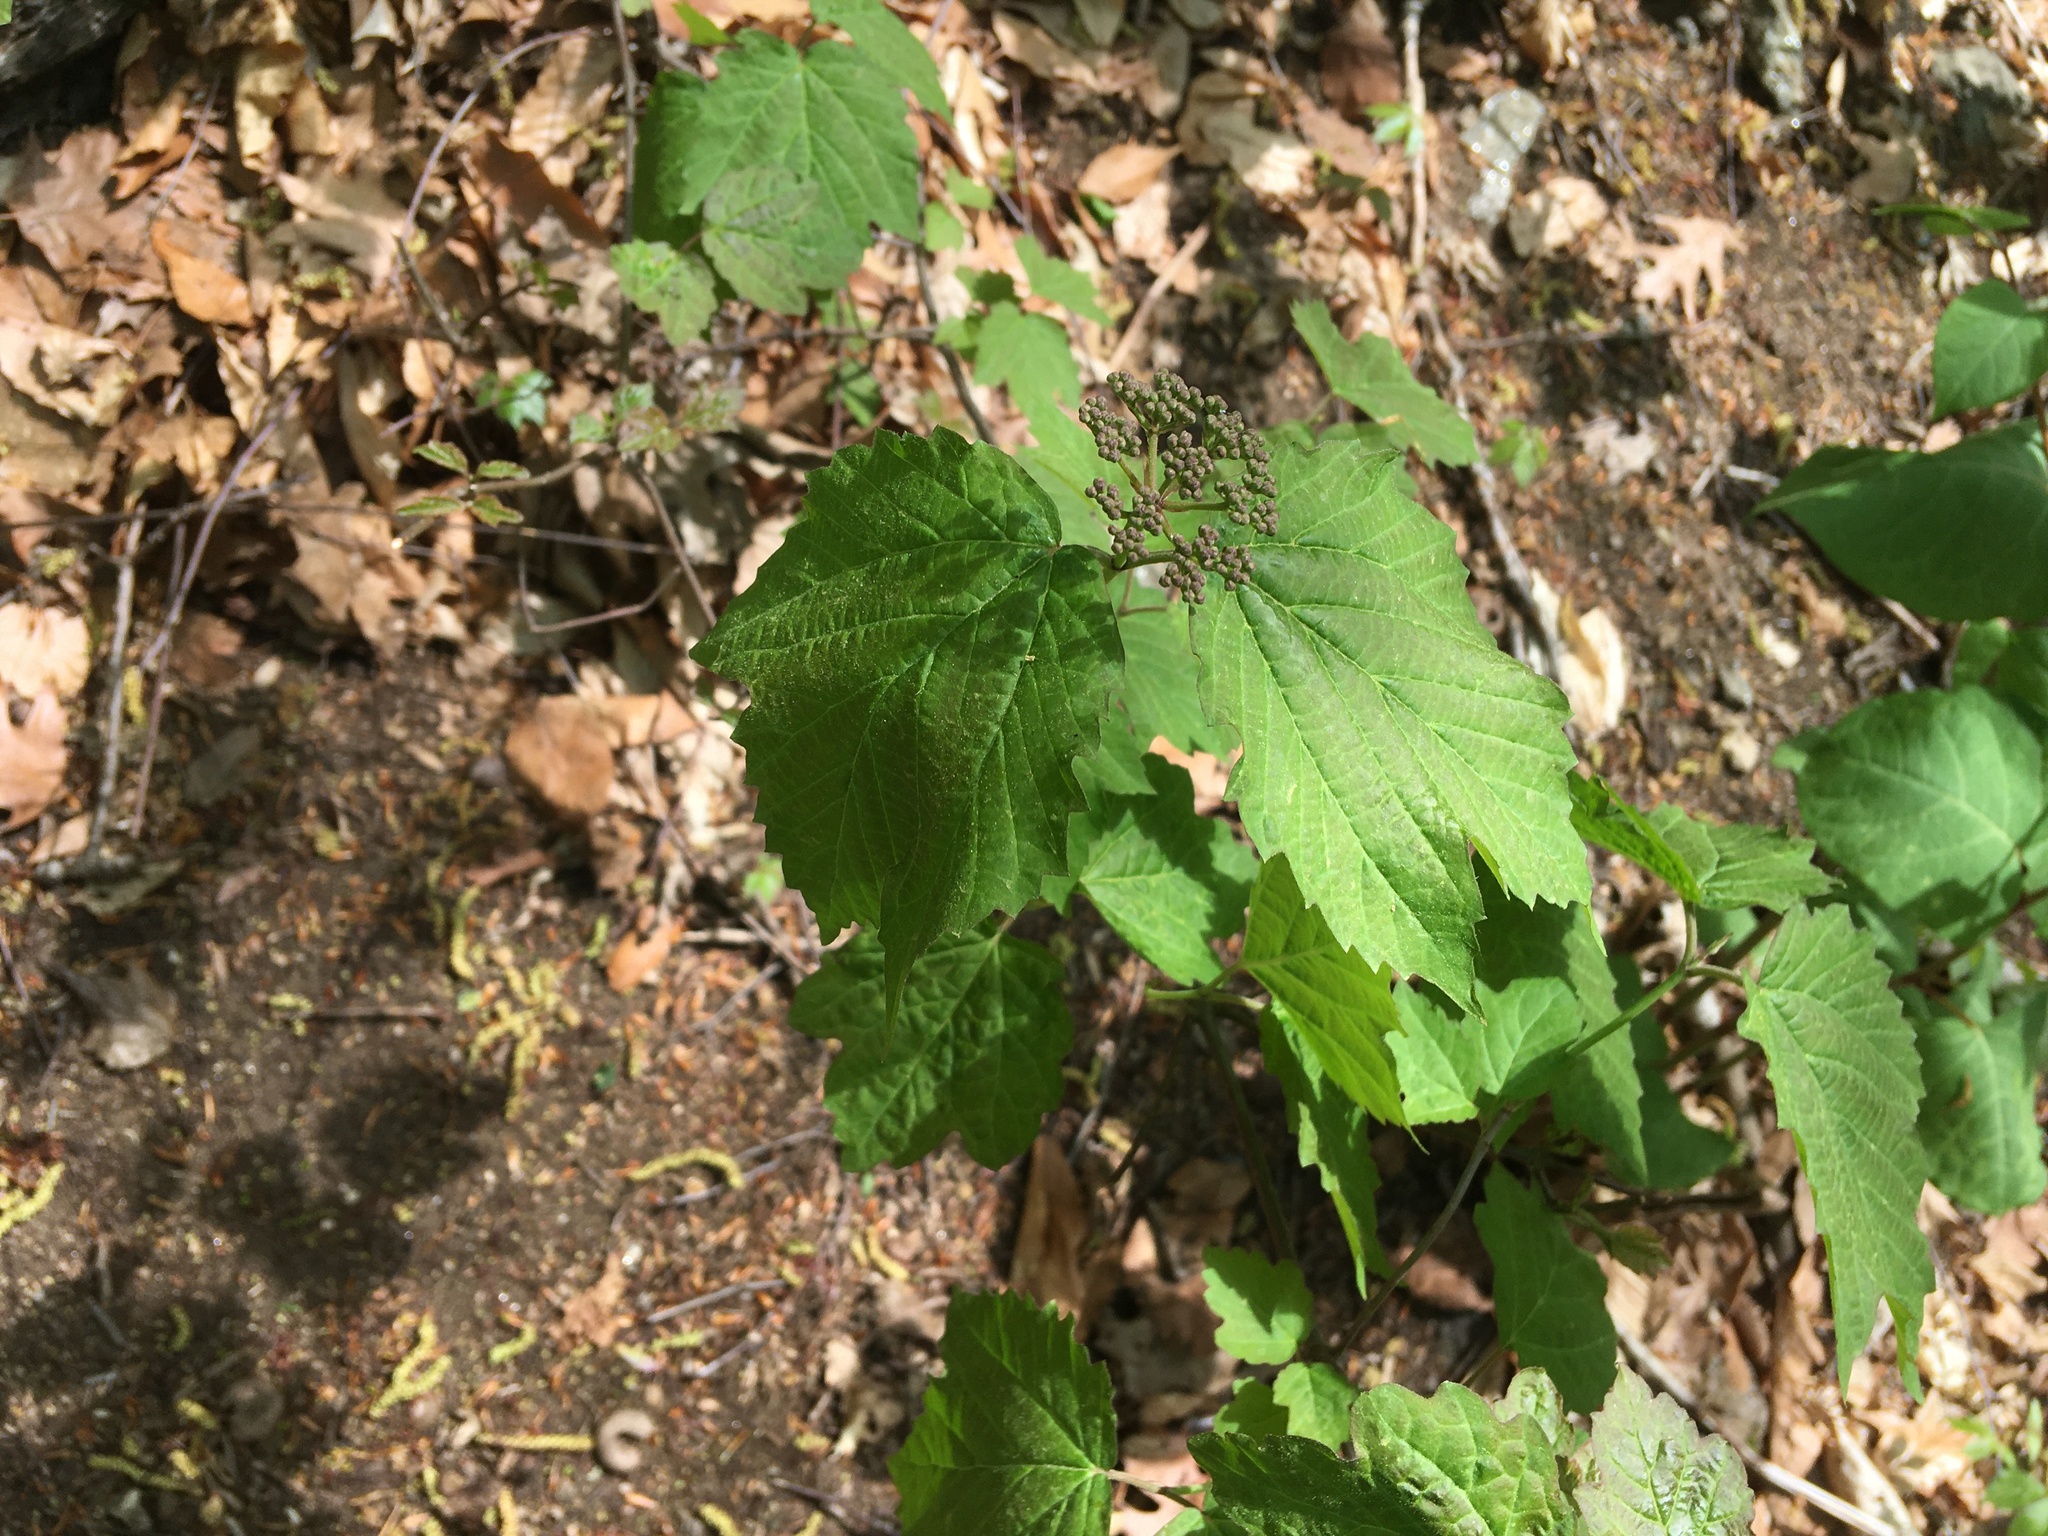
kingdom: Plantae
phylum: Tracheophyta
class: Magnoliopsida
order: Dipsacales
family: Viburnaceae
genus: Viburnum
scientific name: Viburnum acerifolium
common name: Dockmackie
